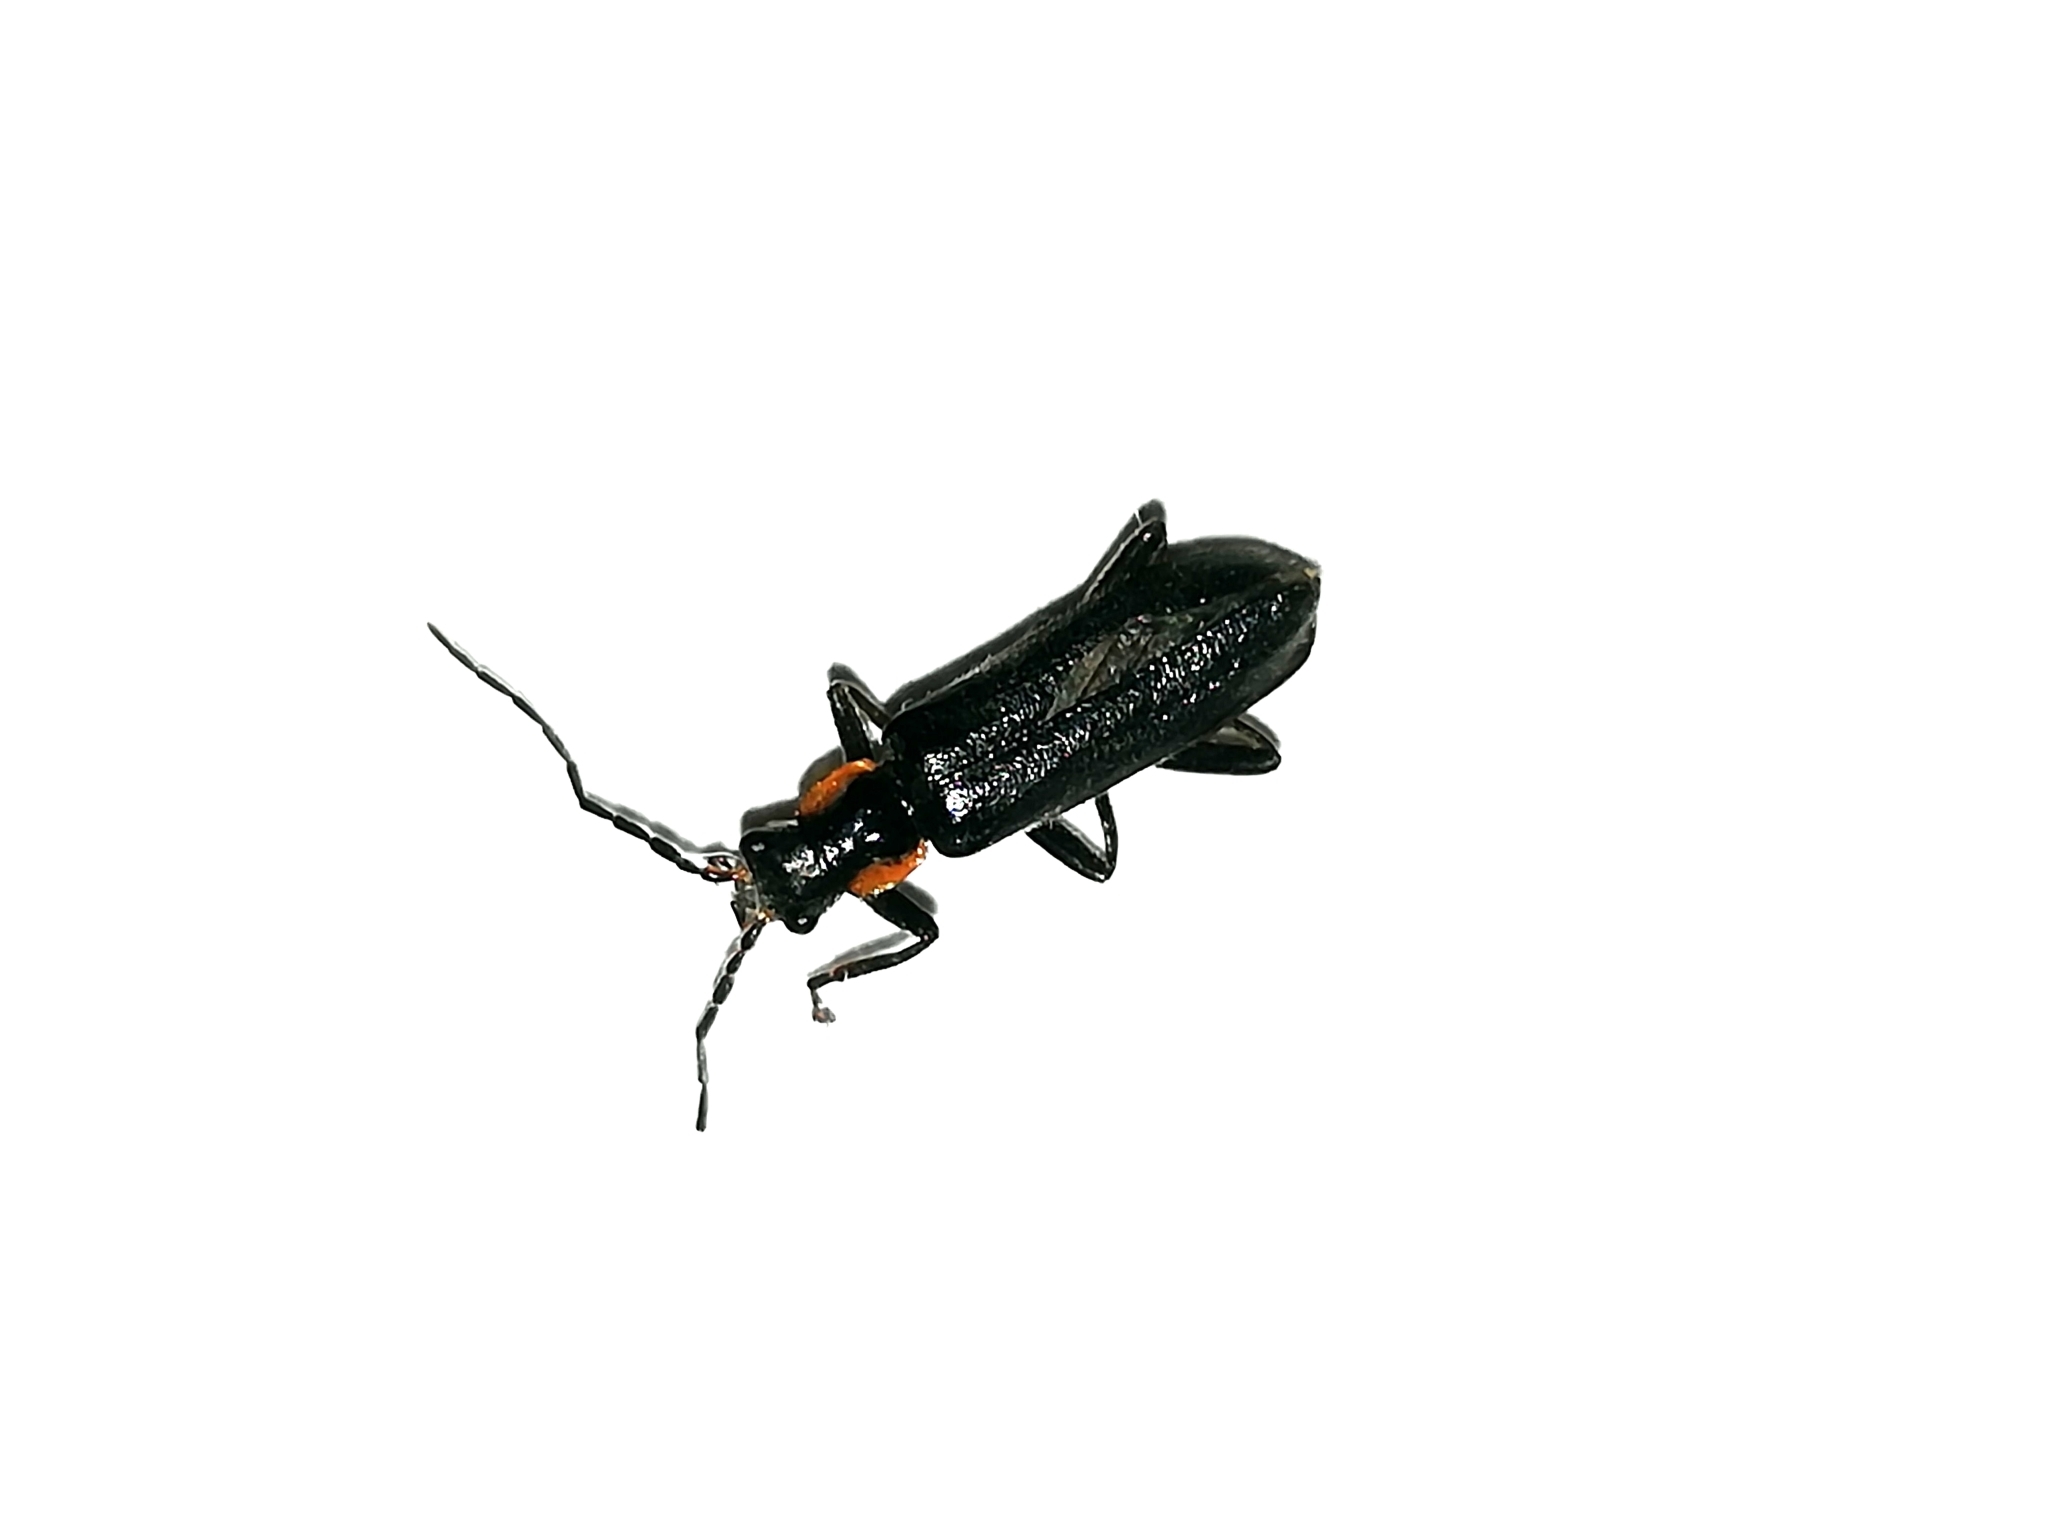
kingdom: Animalia
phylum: Arthropoda
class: Insecta
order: Coleoptera
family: Cantharidae
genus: Cantharis
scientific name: Cantharis obscura
